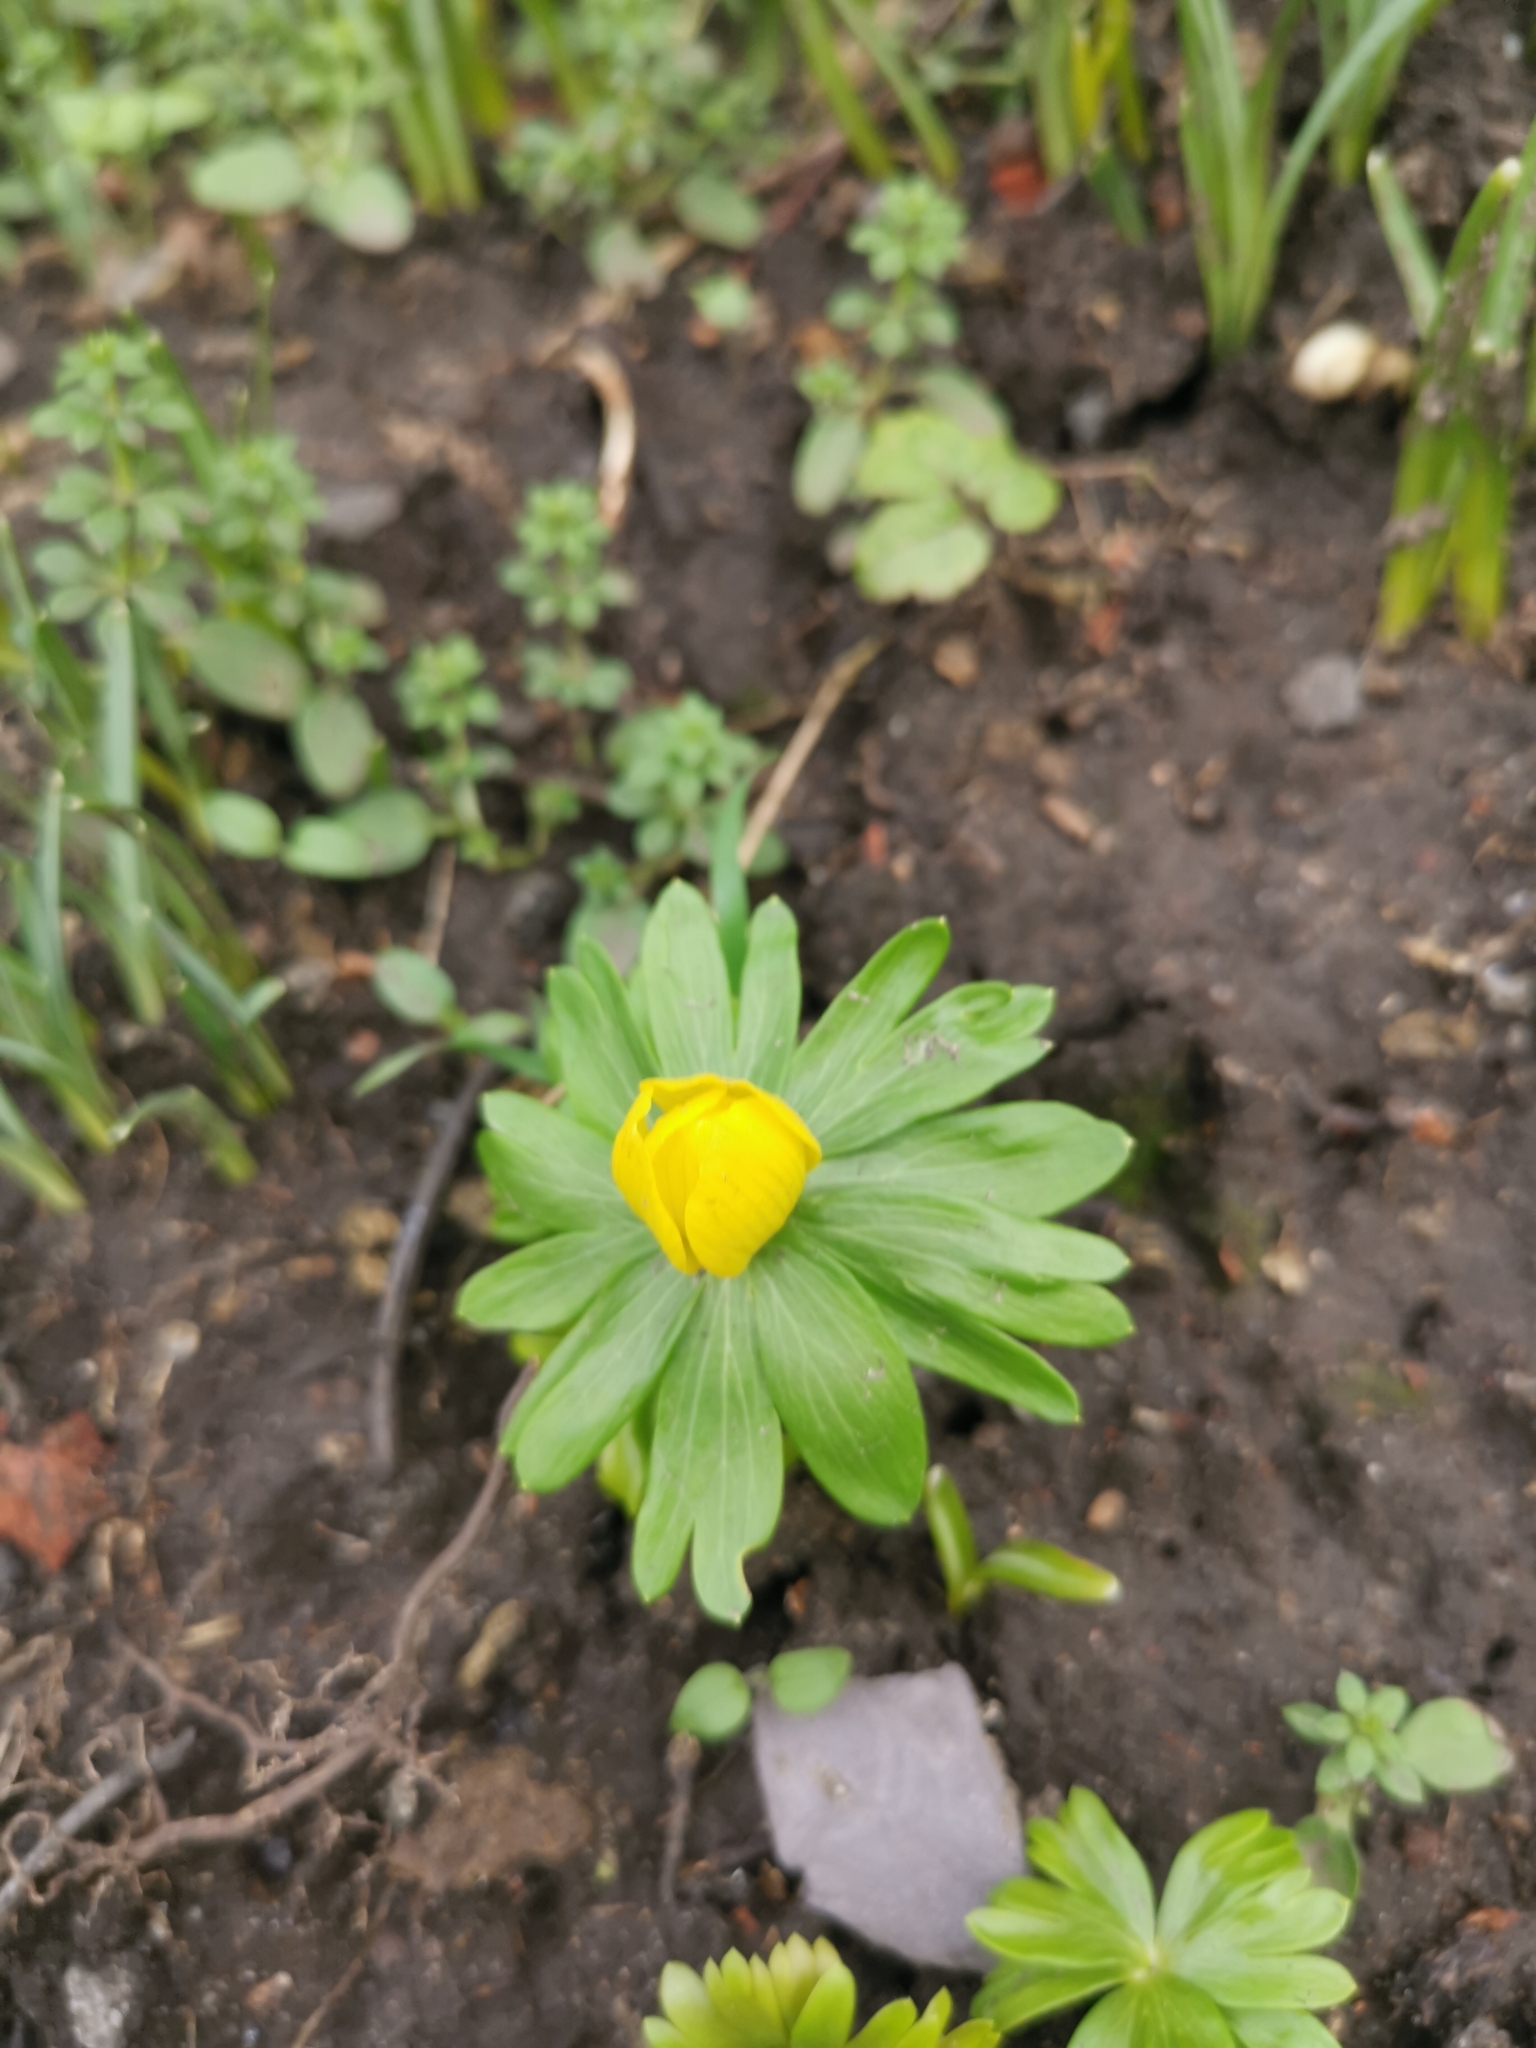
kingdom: Plantae
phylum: Tracheophyta
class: Magnoliopsida
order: Ranunculales
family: Ranunculaceae
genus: Eranthis
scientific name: Eranthis hyemalis
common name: Winter aconite
